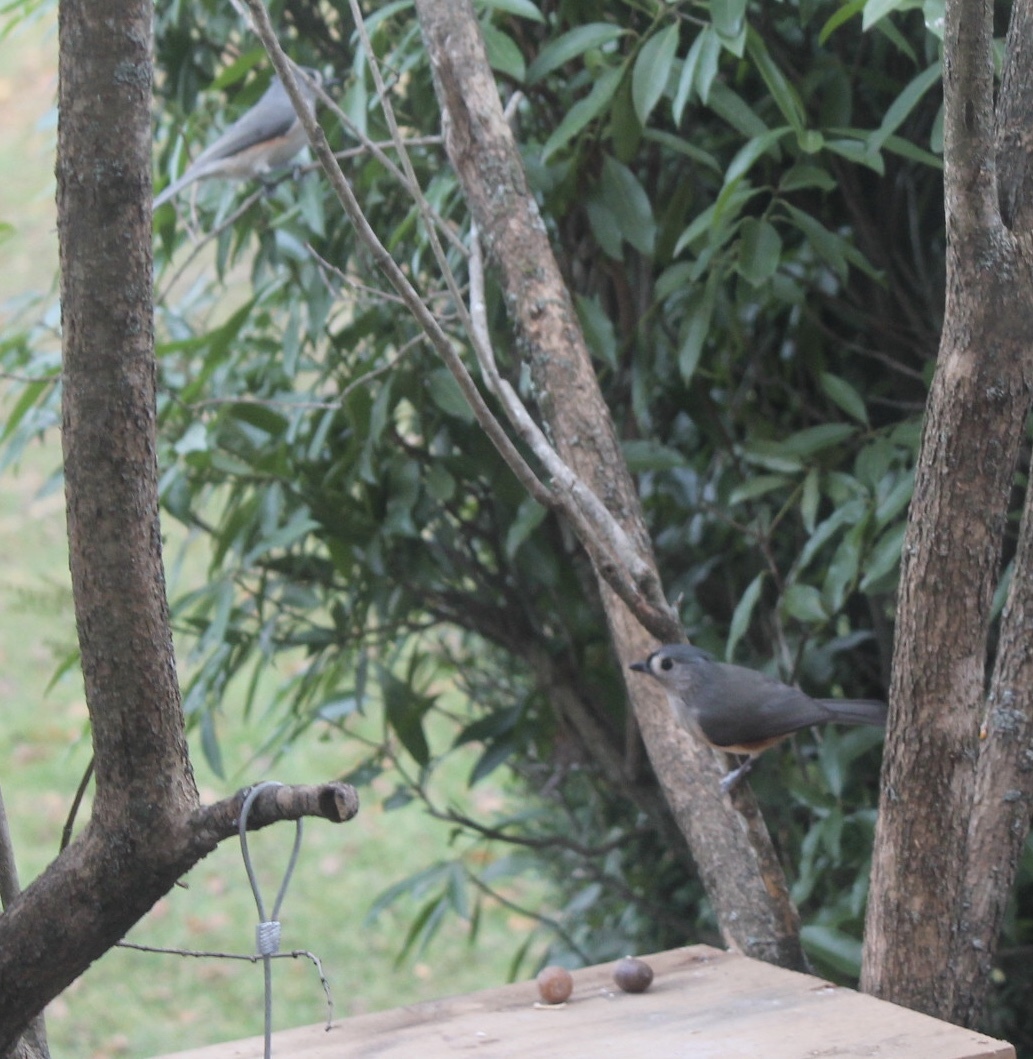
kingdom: Animalia
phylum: Chordata
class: Aves
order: Passeriformes
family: Paridae
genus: Baeolophus
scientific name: Baeolophus bicolor
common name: Tufted titmouse
